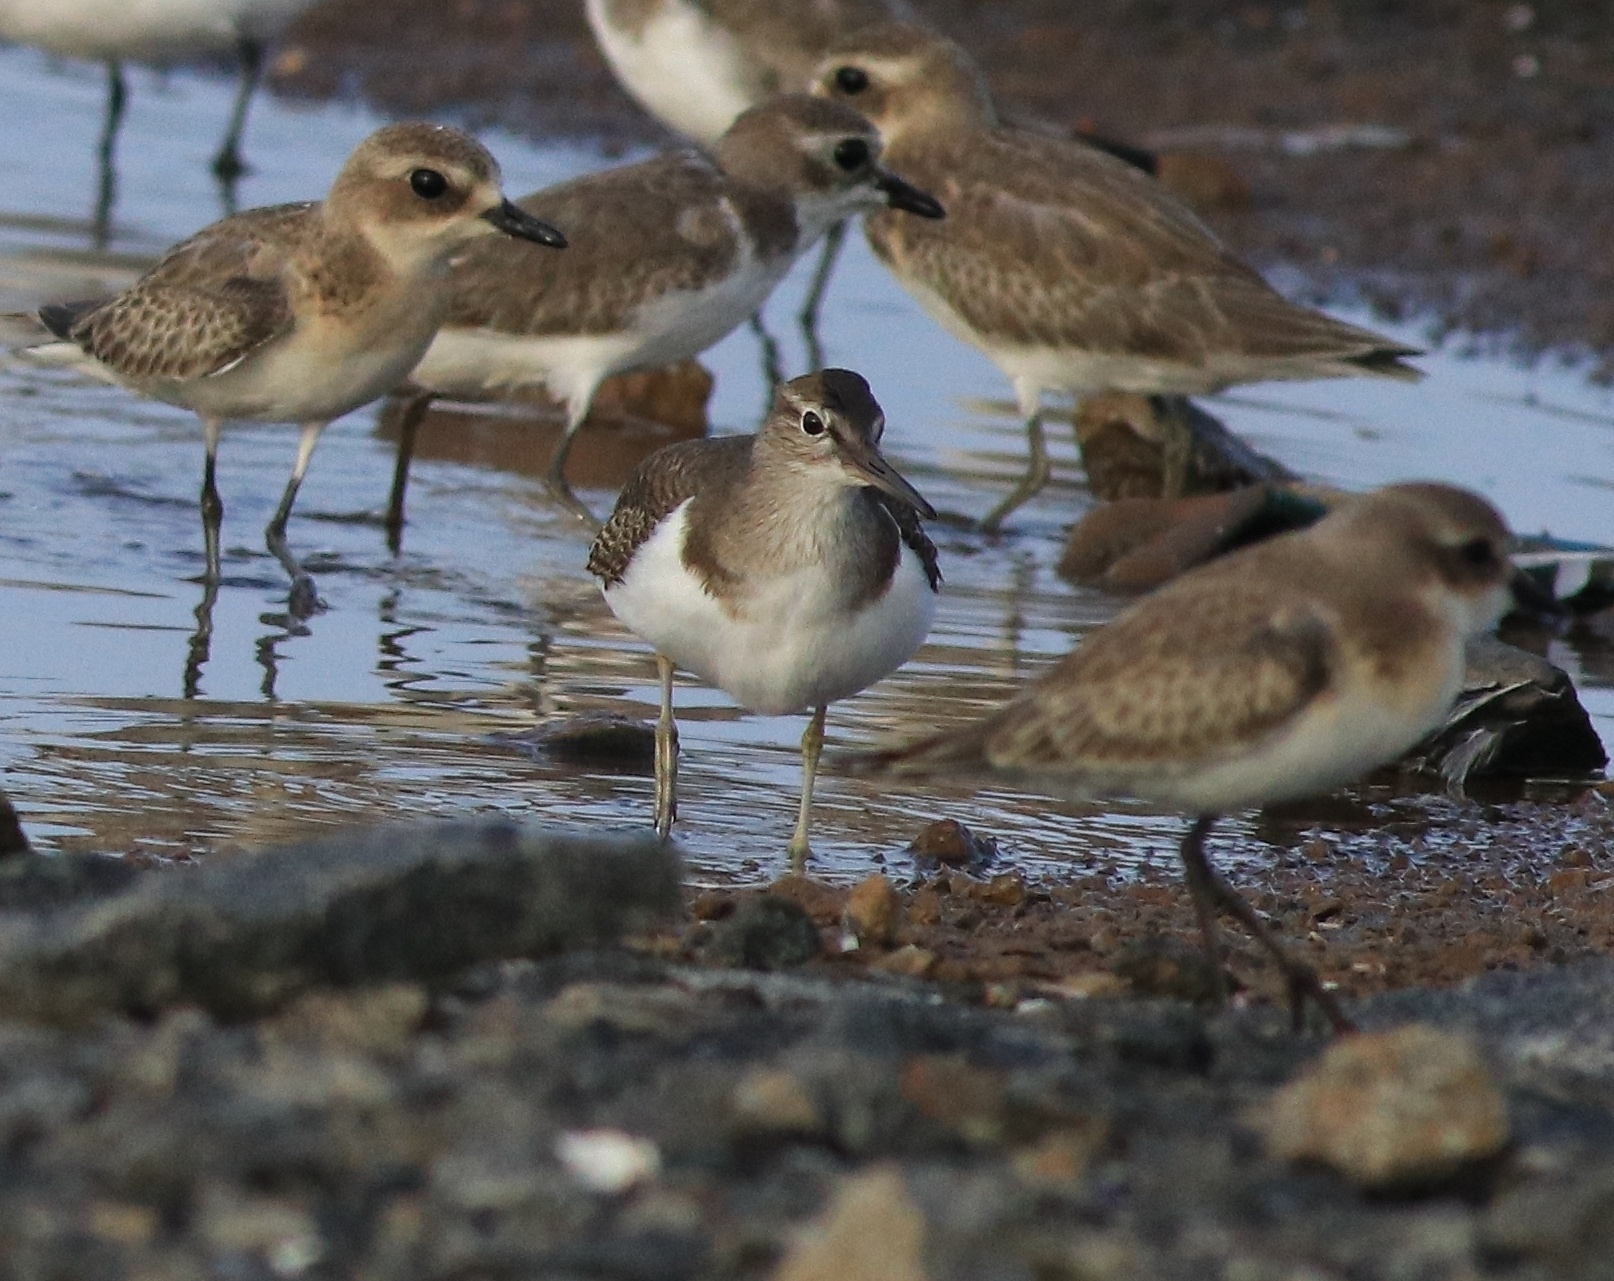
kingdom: Animalia
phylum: Chordata
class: Aves
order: Charadriiformes
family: Scolopacidae
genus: Actitis
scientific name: Actitis hypoleucos
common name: Common sandpiper
